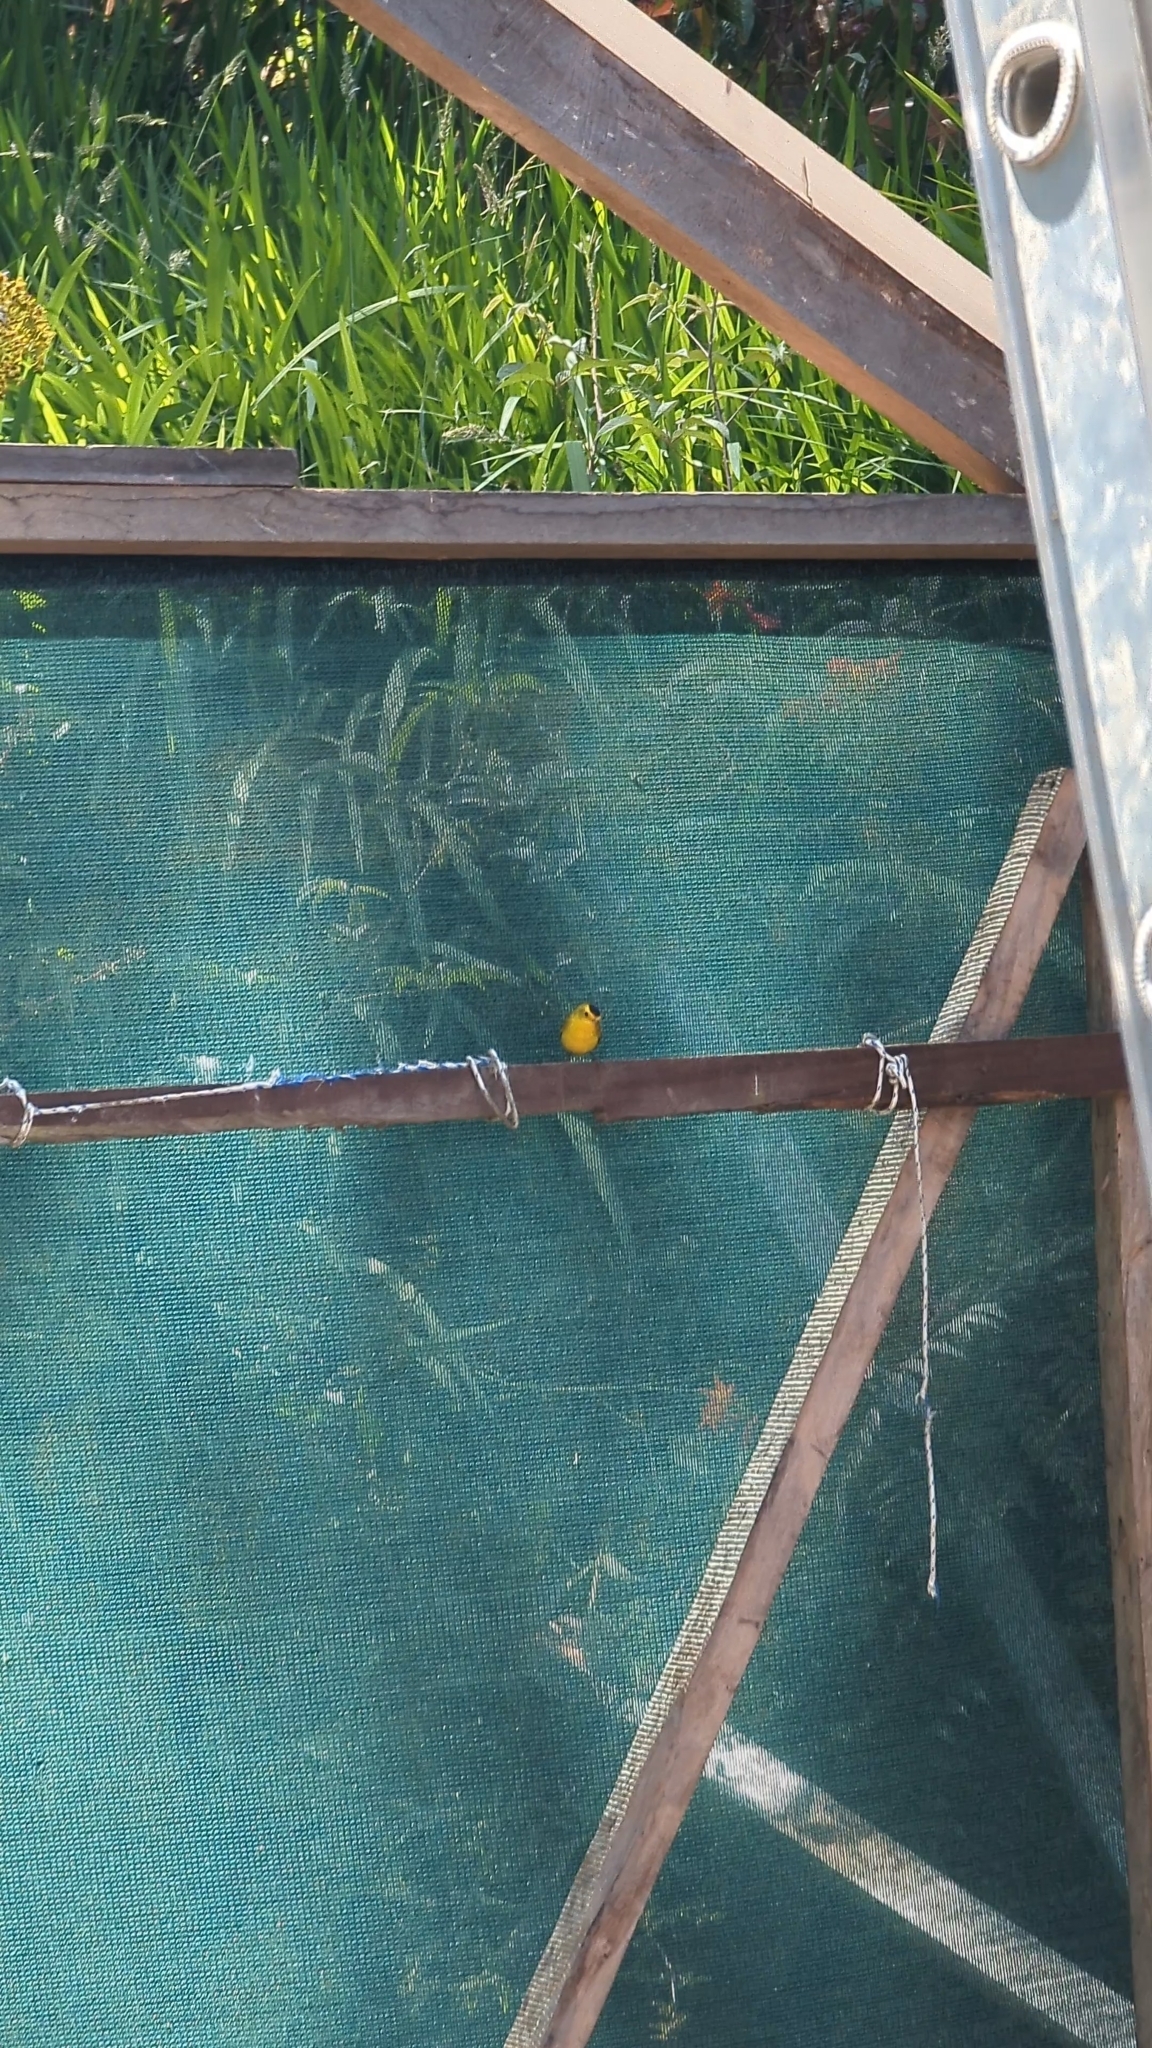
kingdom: Animalia
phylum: Chordata
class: Aves
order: Passeriformes
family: Parulidae
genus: Cardellina
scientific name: Cardellina pusilla
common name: Wilson's warbler
